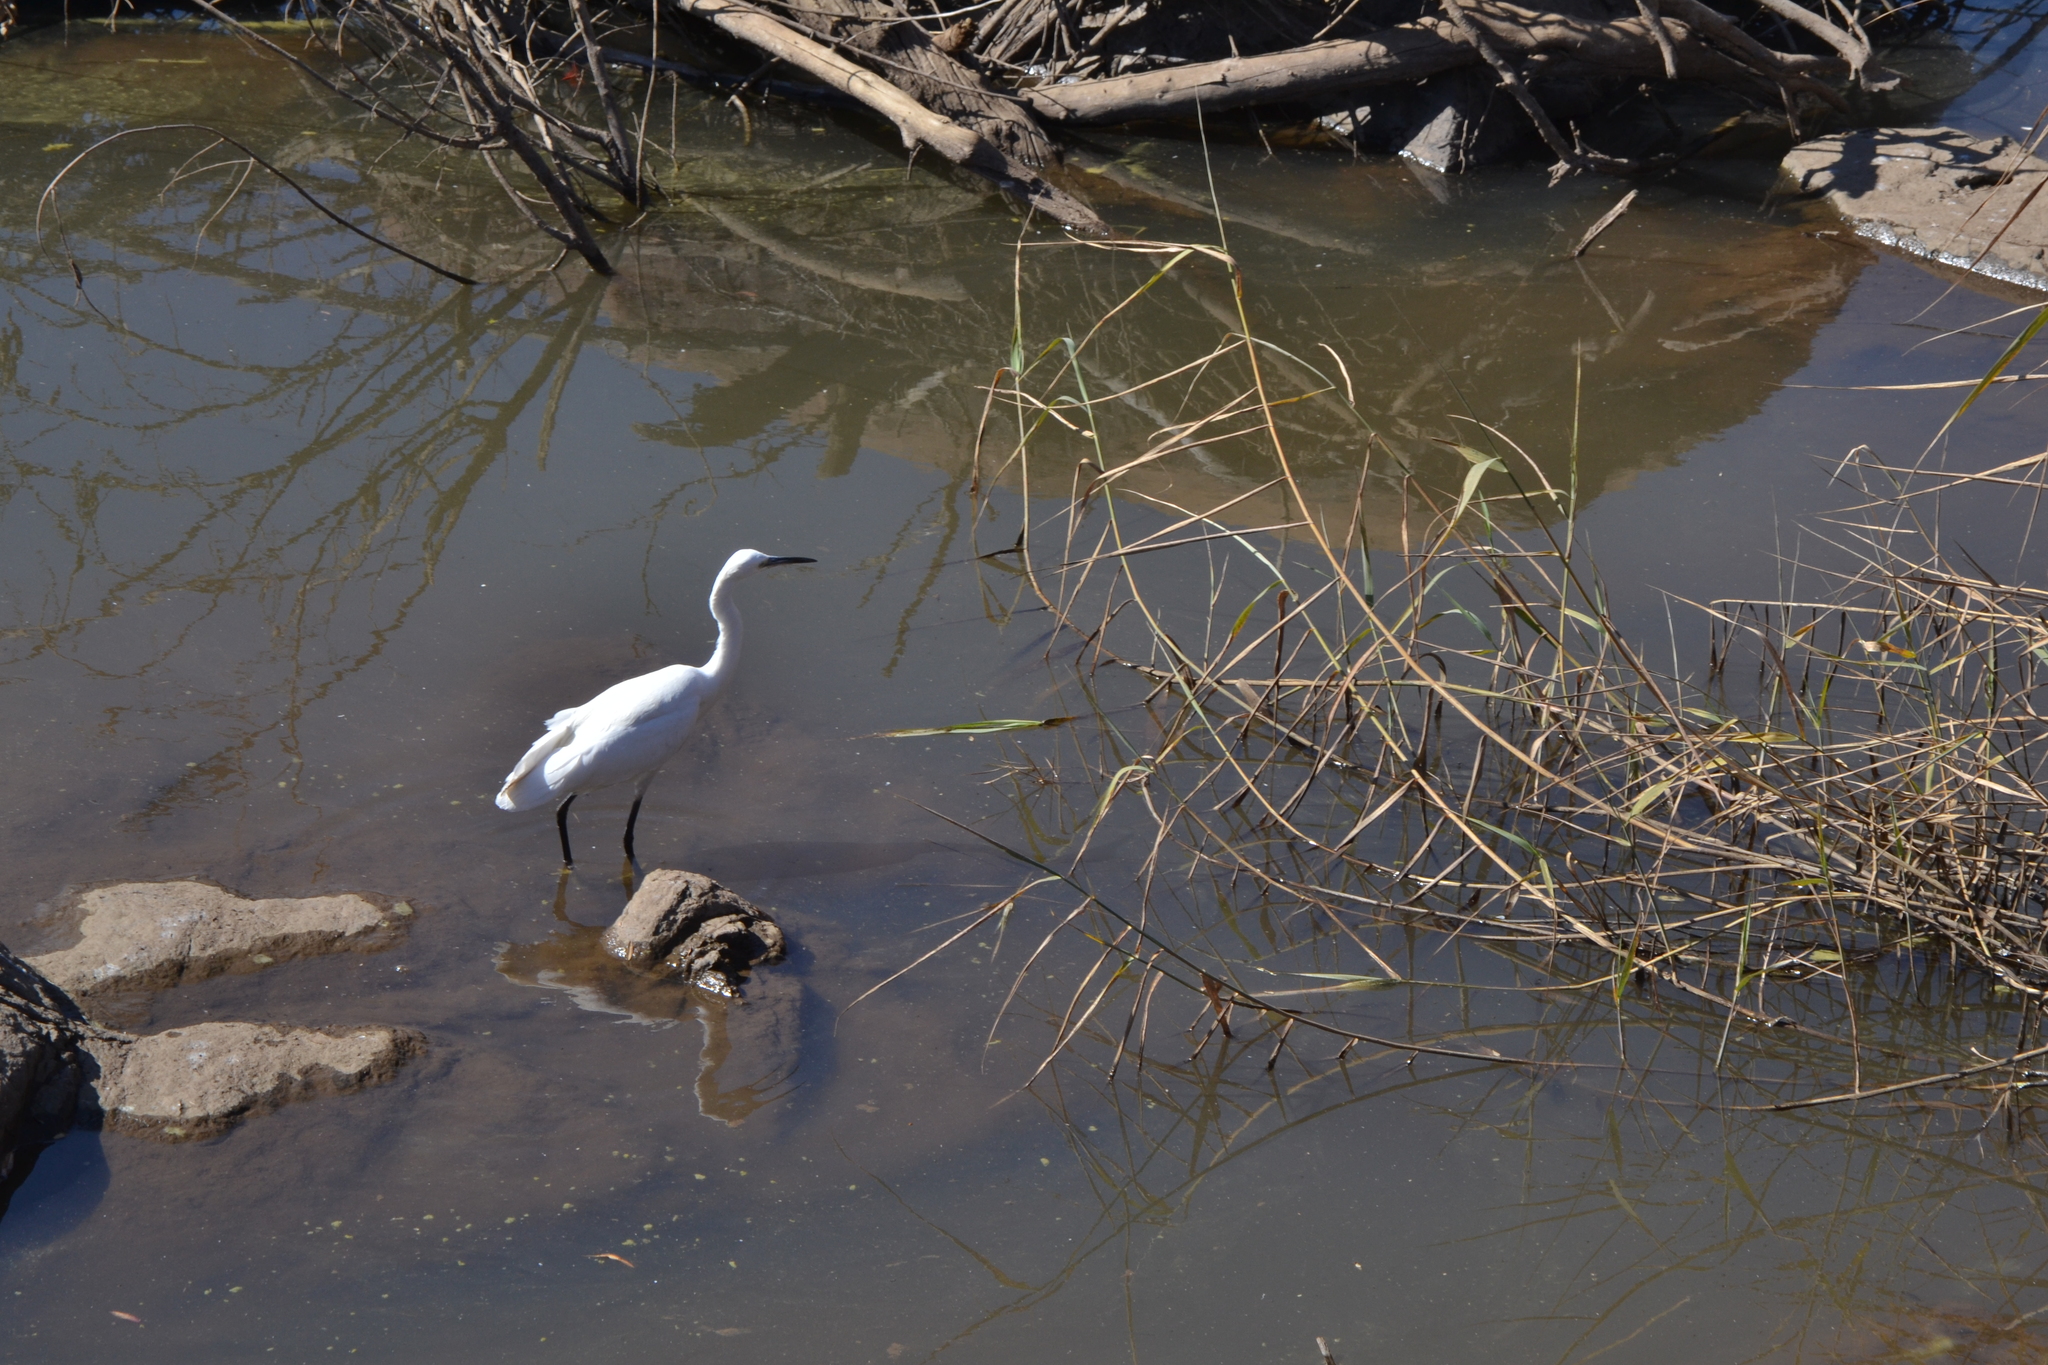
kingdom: Animalia
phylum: Chordata
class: Aves
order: Pelecaniformes
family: Ardeidae
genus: Egretta
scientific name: Egretta garzetta
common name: Little egret
